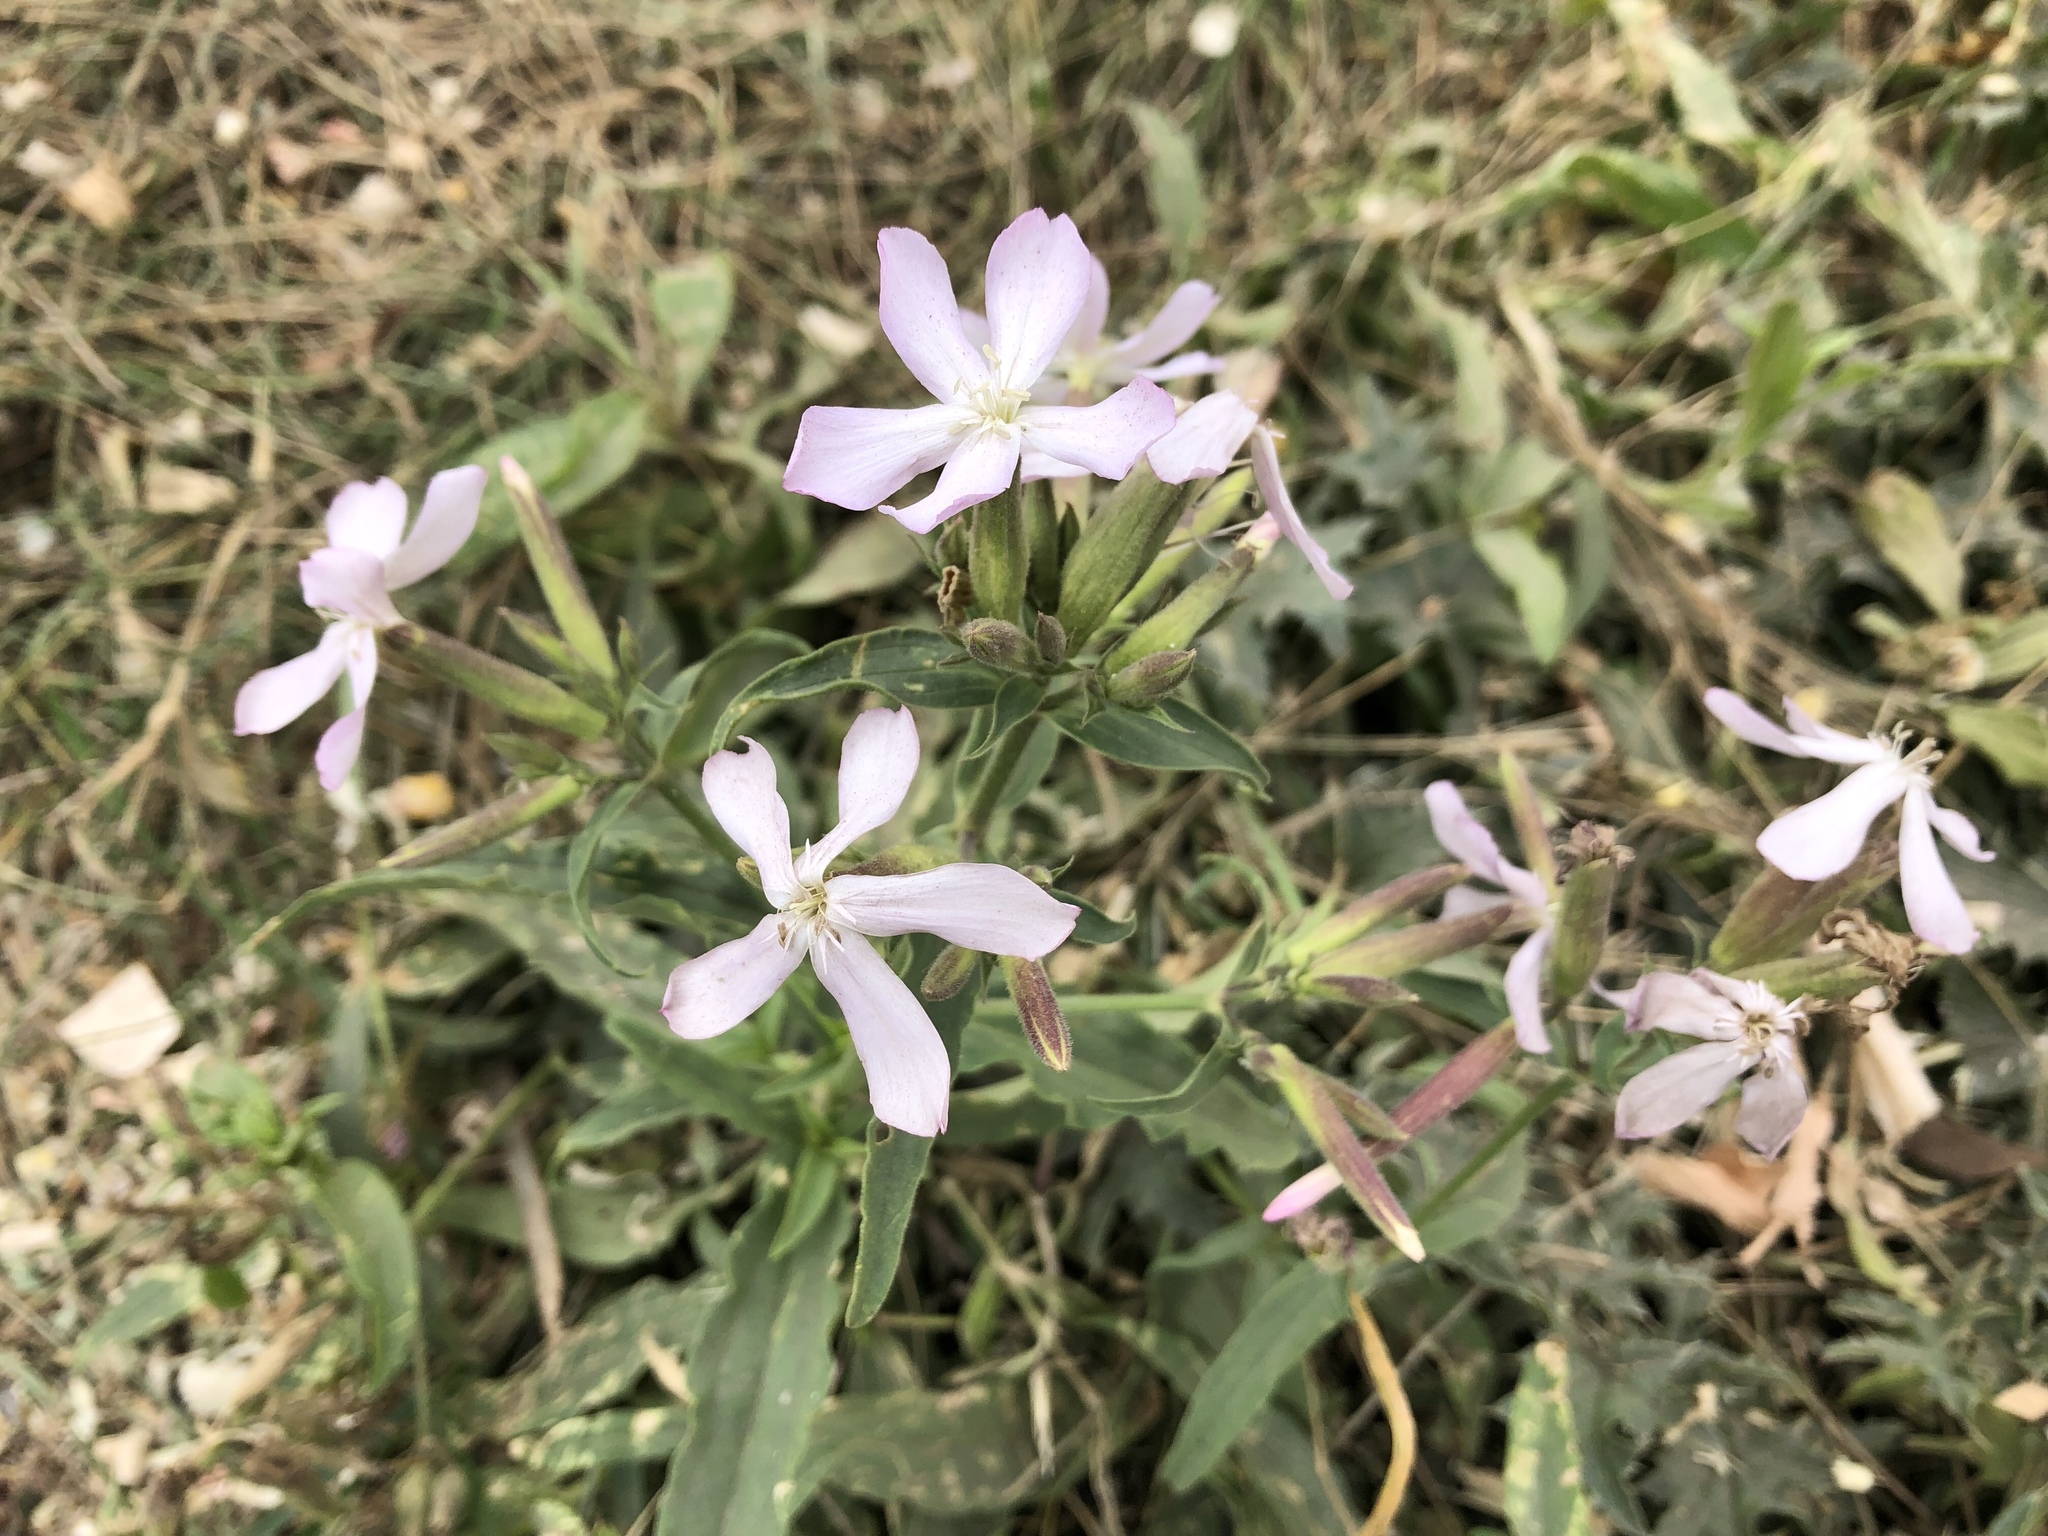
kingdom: Plantae
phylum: Tracheophyta
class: Magnoliopsida
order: Caryophyllales
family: Caryophyllaceae
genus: Saponaria
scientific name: Saponaria officinalis
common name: Soapwort
